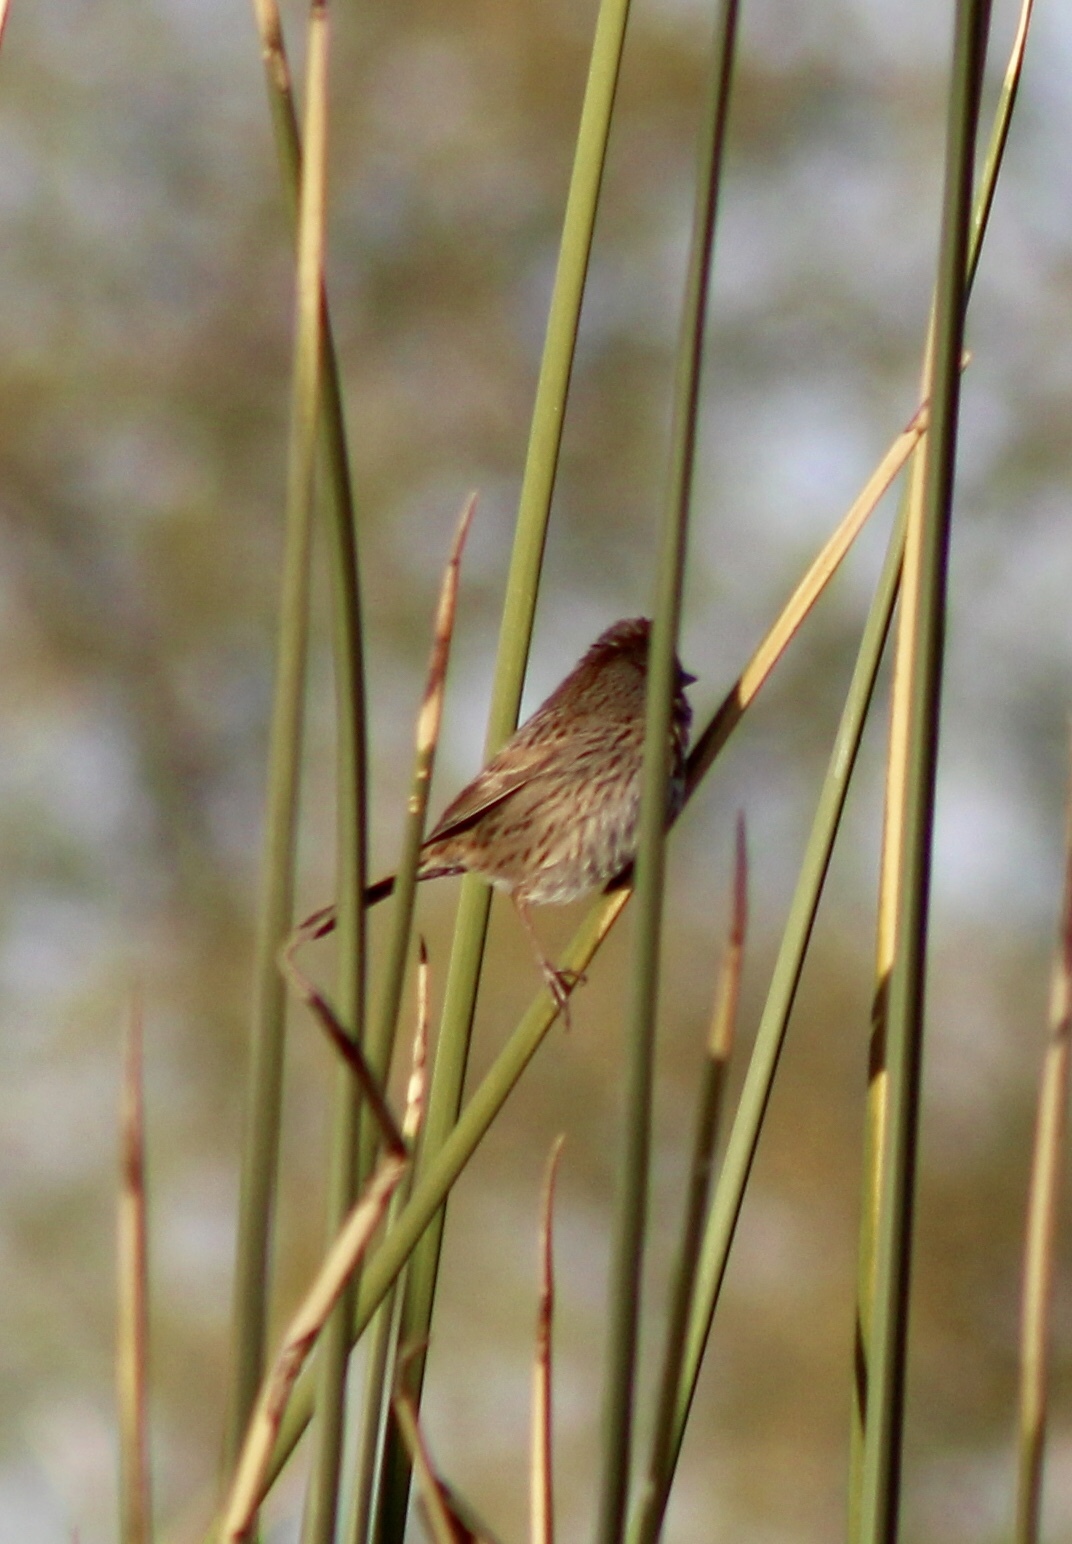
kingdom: Animalia
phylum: Chordata
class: Aves
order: Passeriformes
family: Passerellidae
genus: Melospiza
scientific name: Melospiza lincolnii
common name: Lincoln's sparrow
